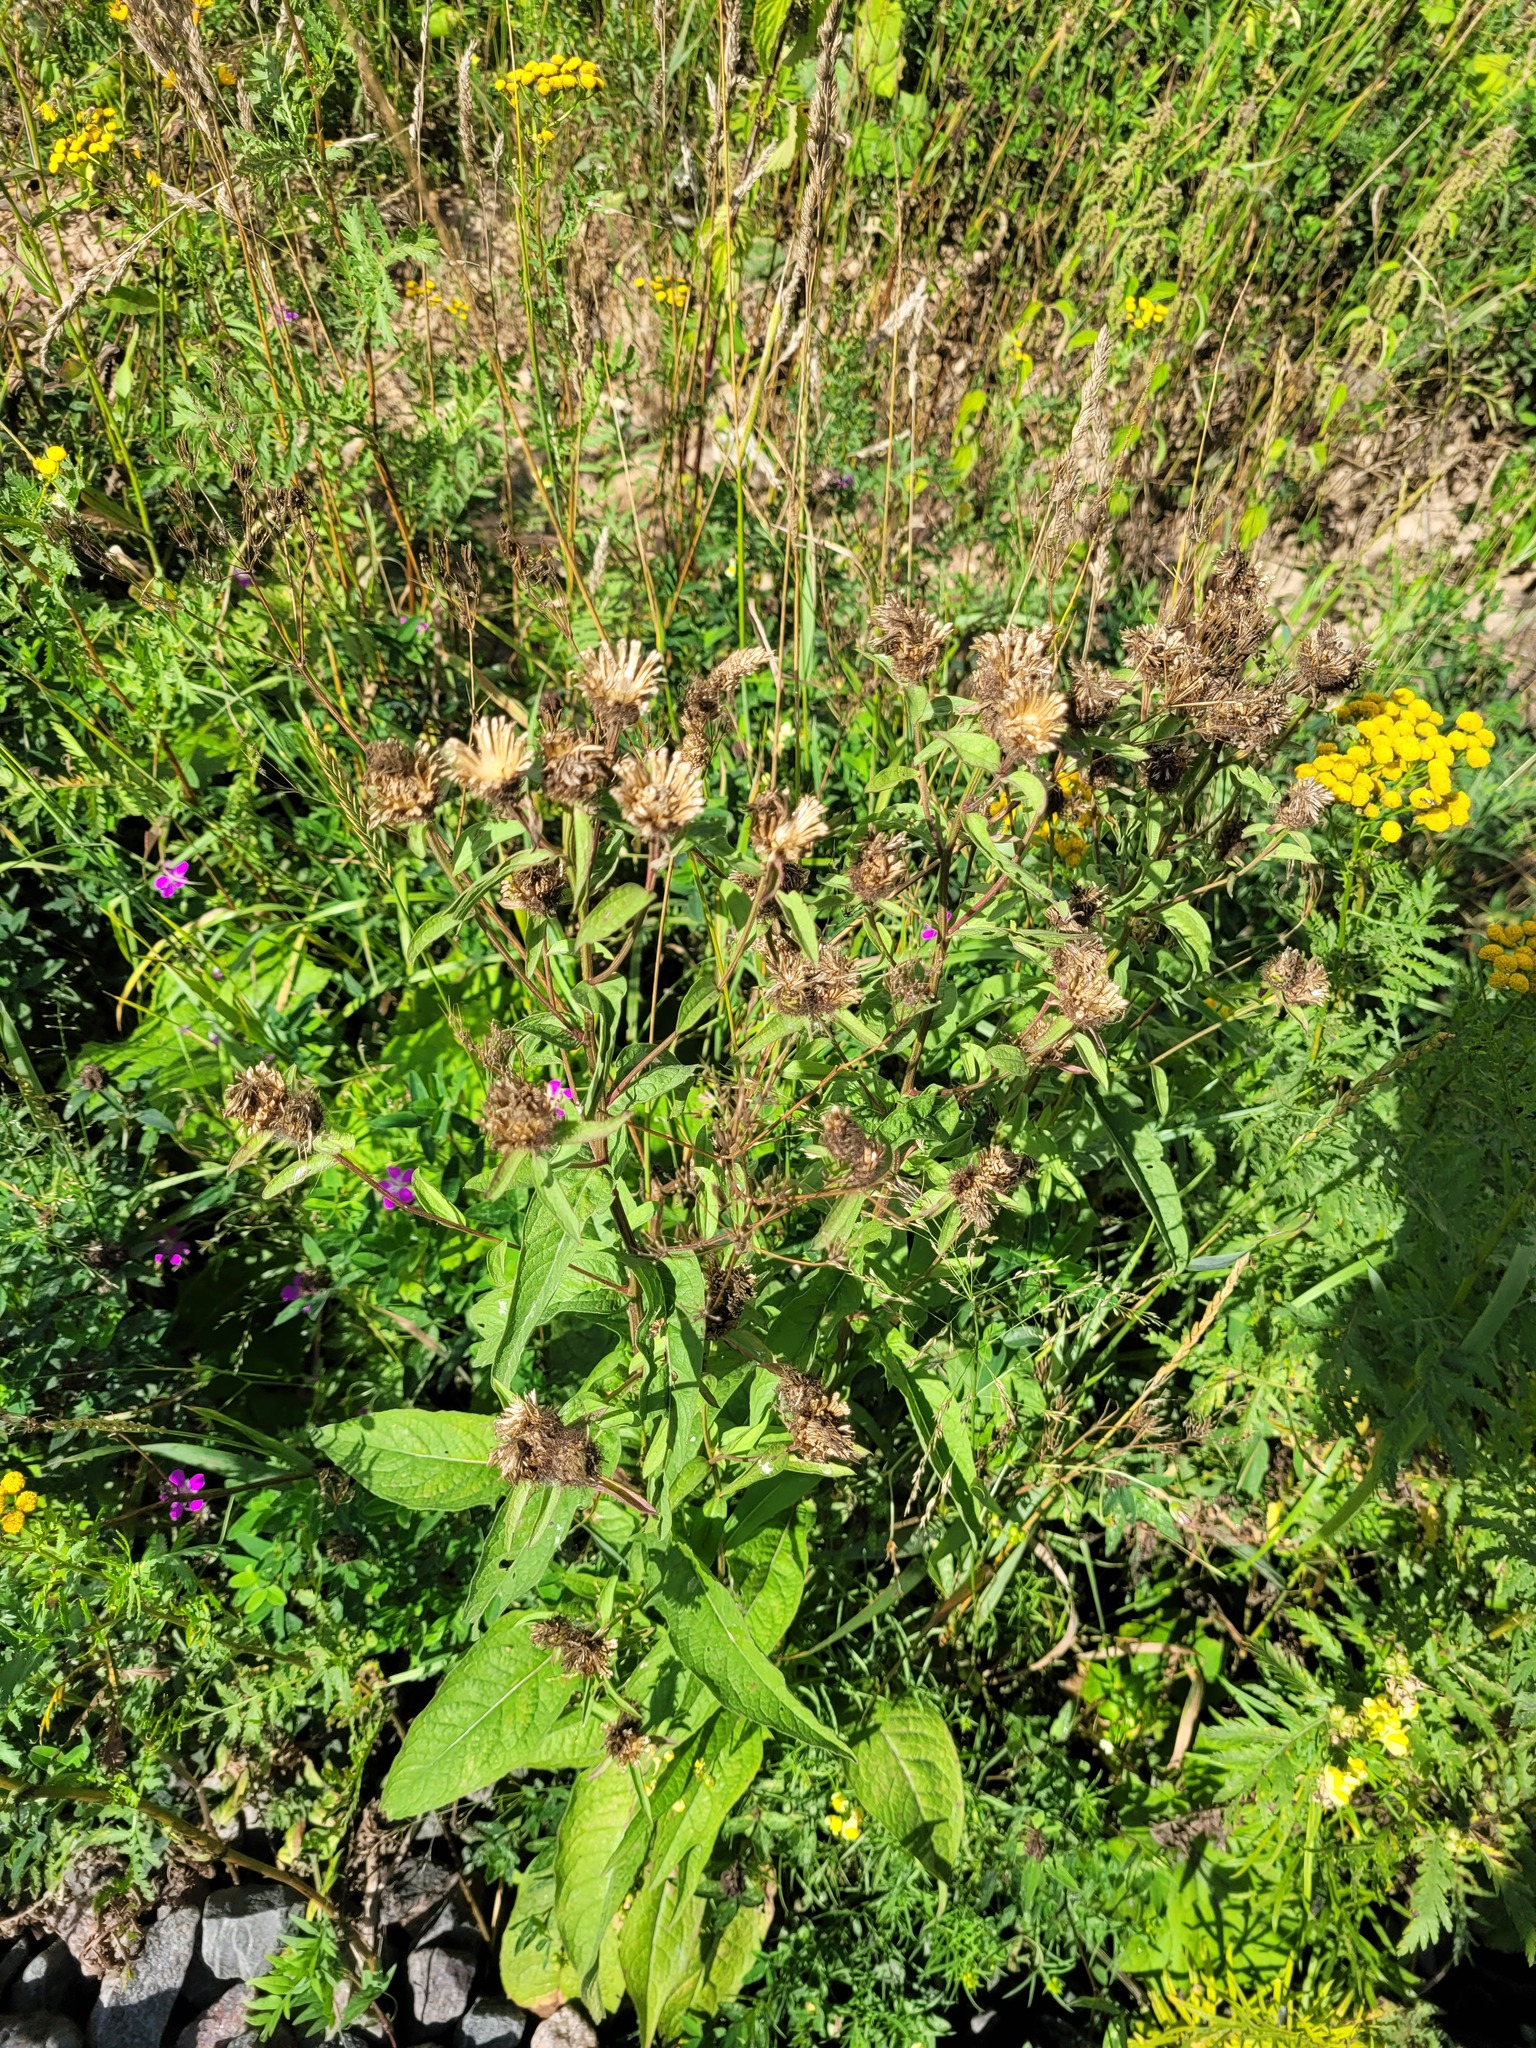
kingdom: Plantae
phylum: Tracheophyta
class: Magnoliopsida
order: Asterales
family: Asteraceae
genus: Centaurea
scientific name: Centaurea pseudophrygia
